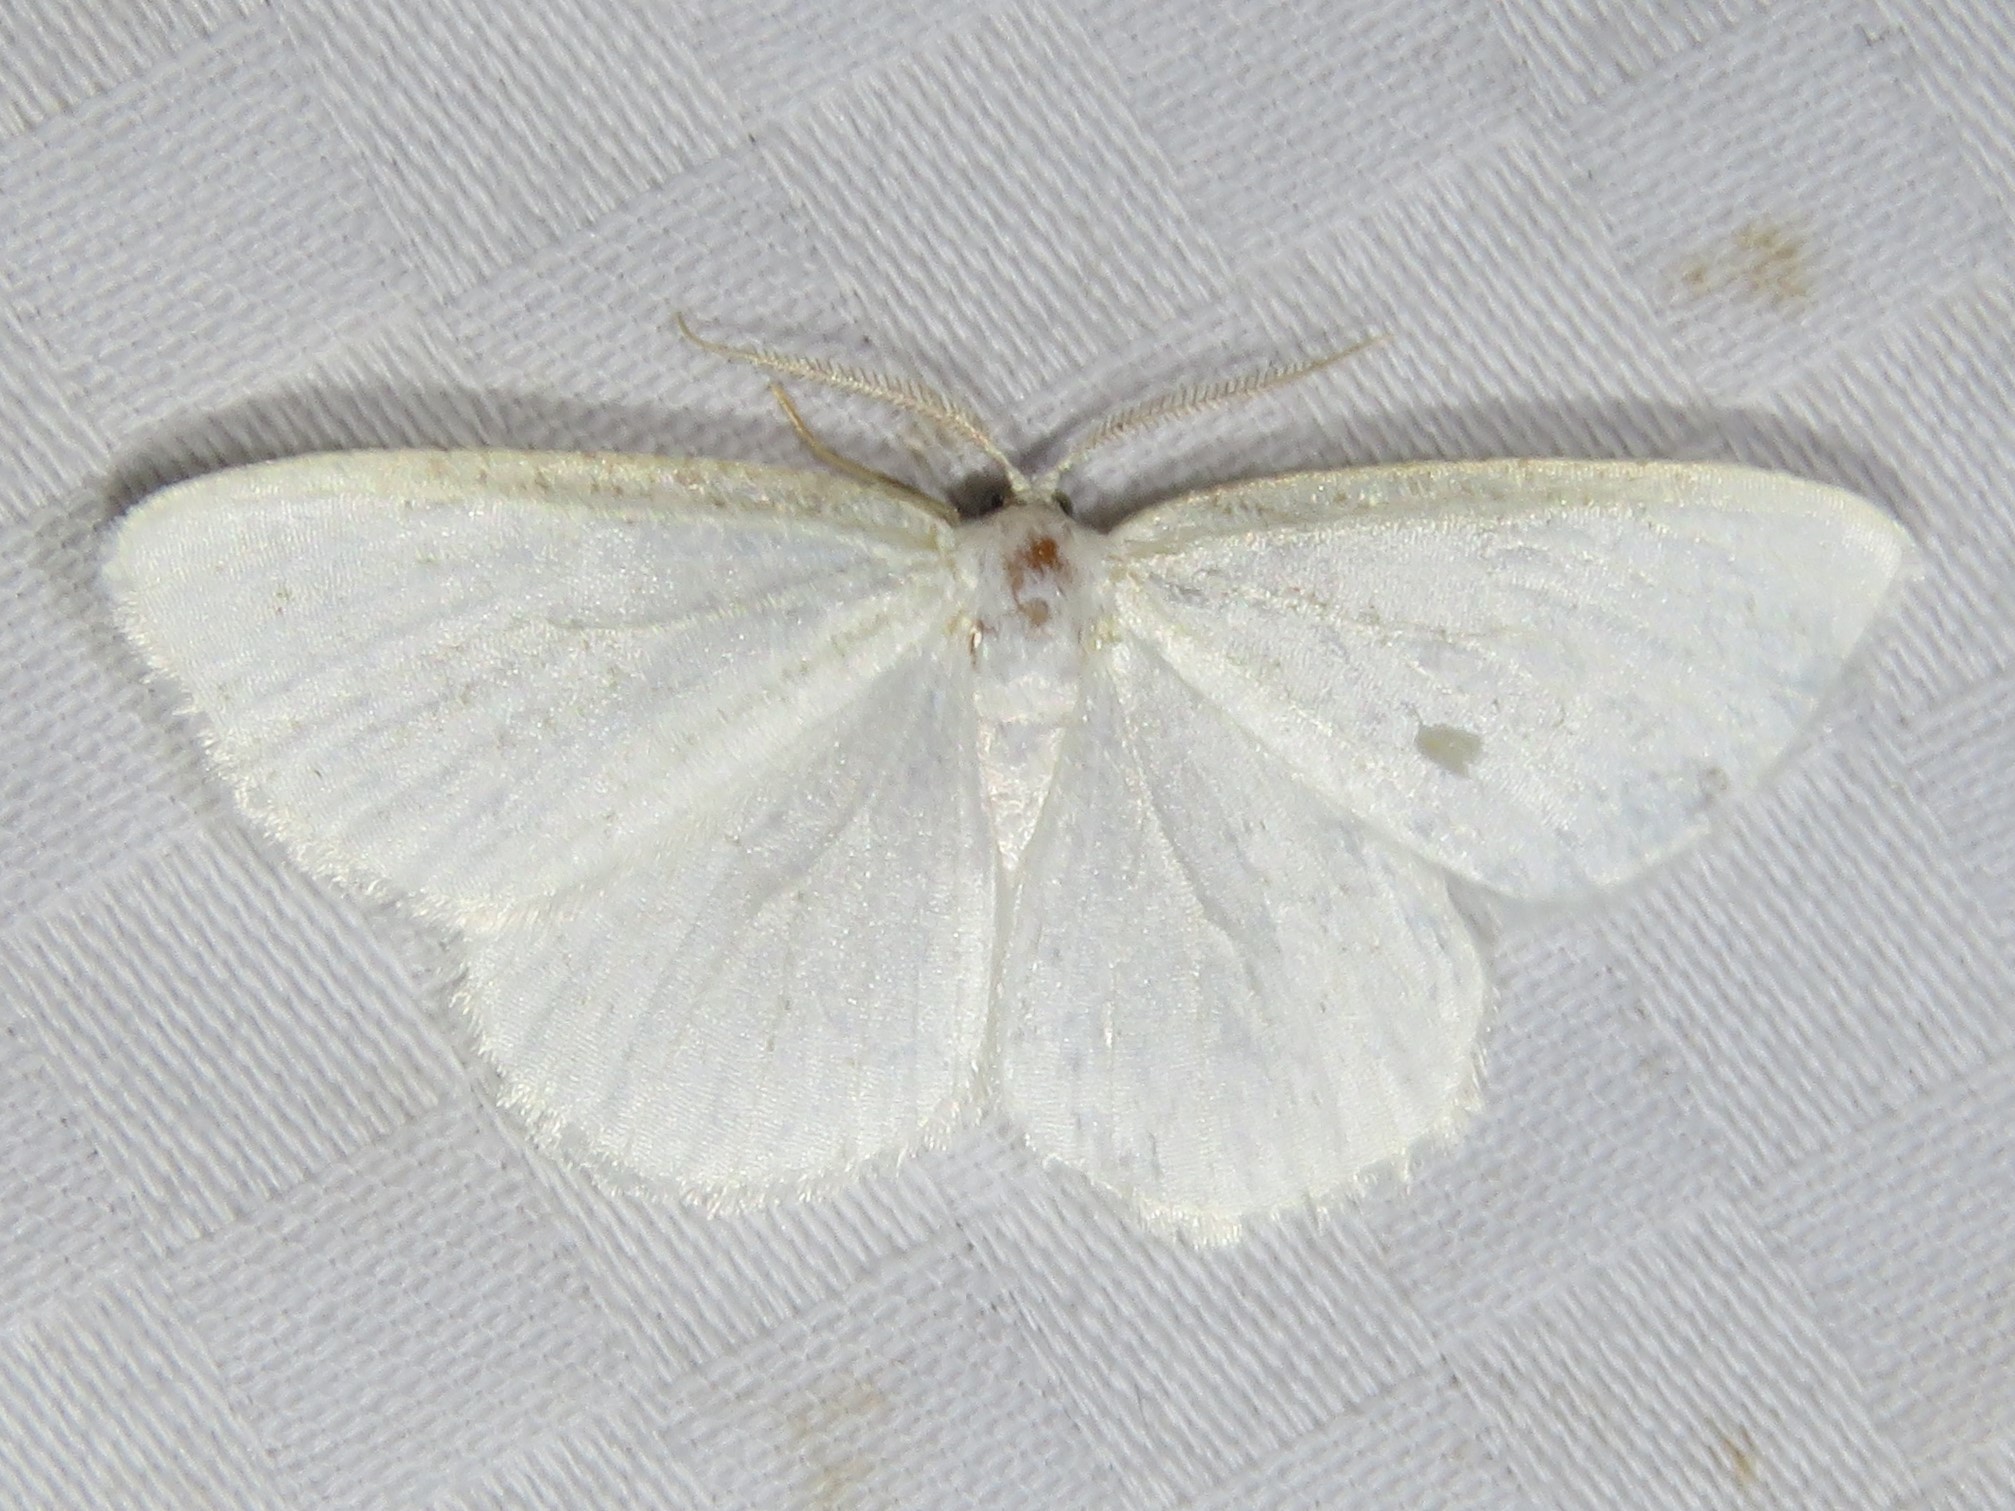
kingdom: Animalia
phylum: Arthropoda
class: Insecta
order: Lepidoptera
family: Geometridae
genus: Protitame
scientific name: Protitame virginalis
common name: Virgin moth
